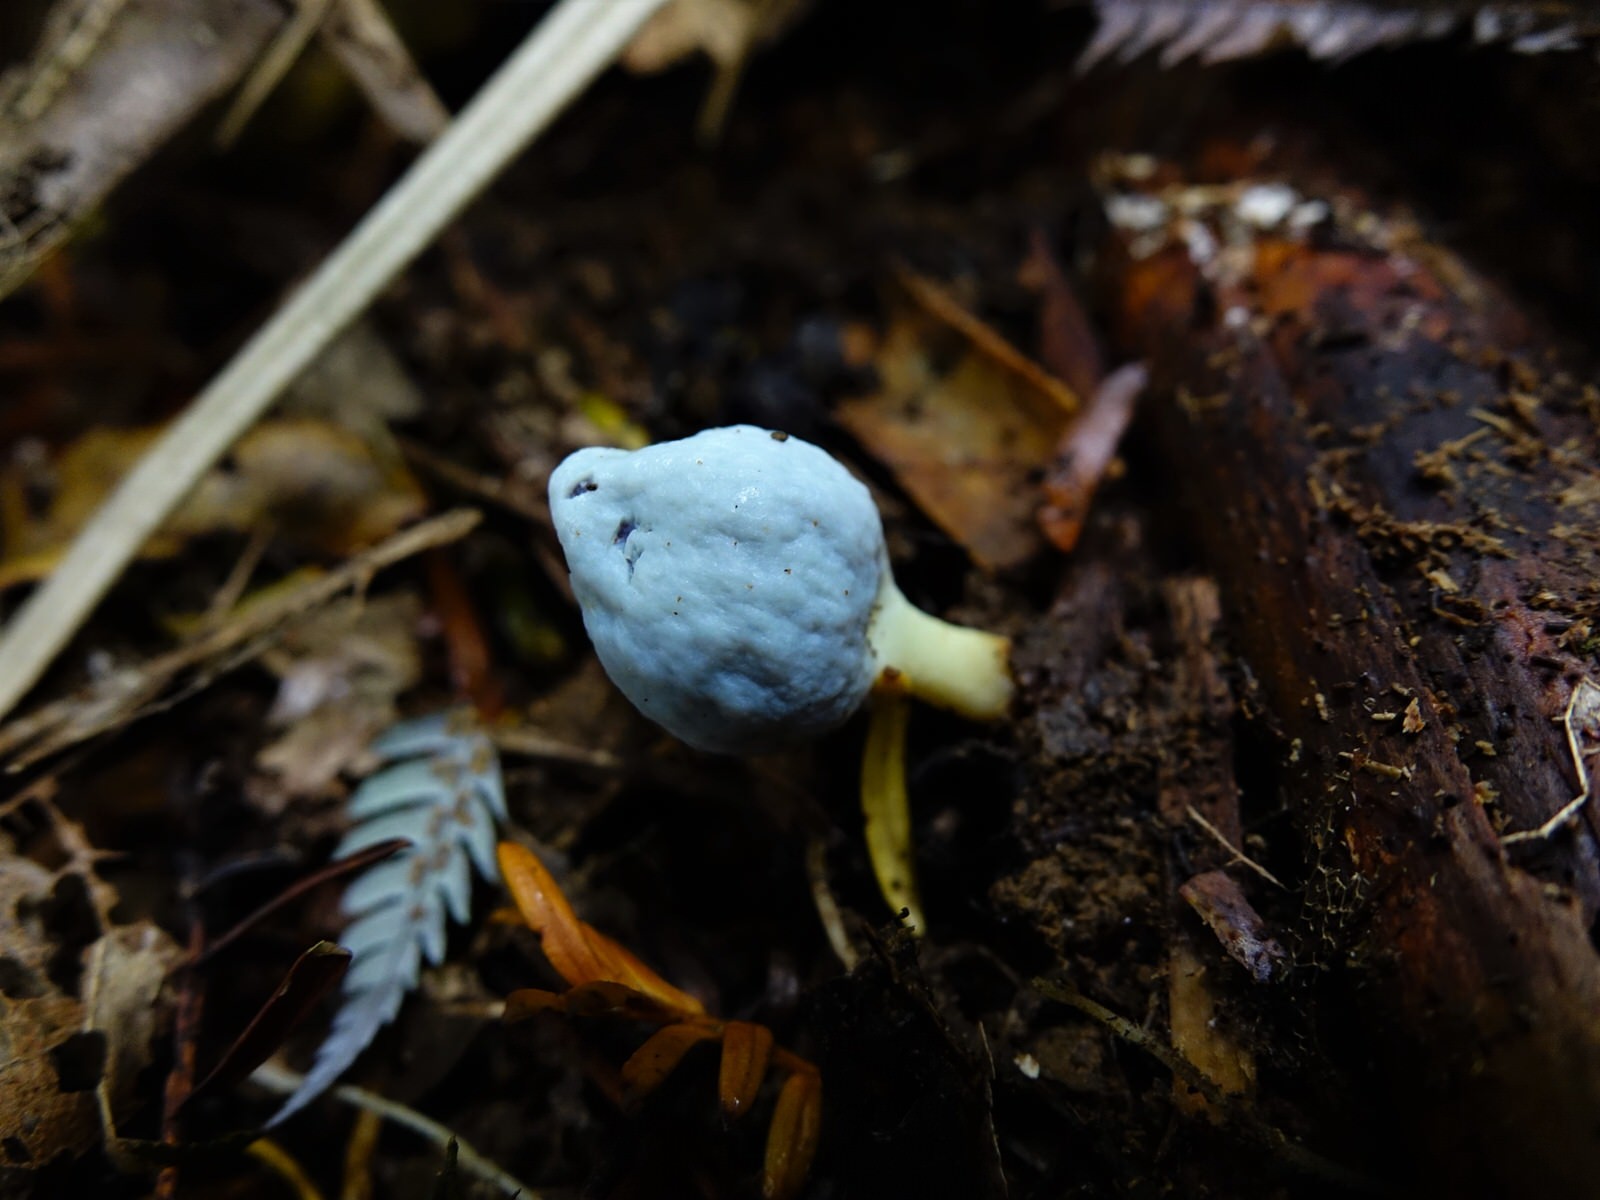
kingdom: Fungi
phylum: Basidiomycota
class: Agaricomycetes
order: Agaricales
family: Agaricaceae
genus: Clavogaster
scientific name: Clavogaster virescens
